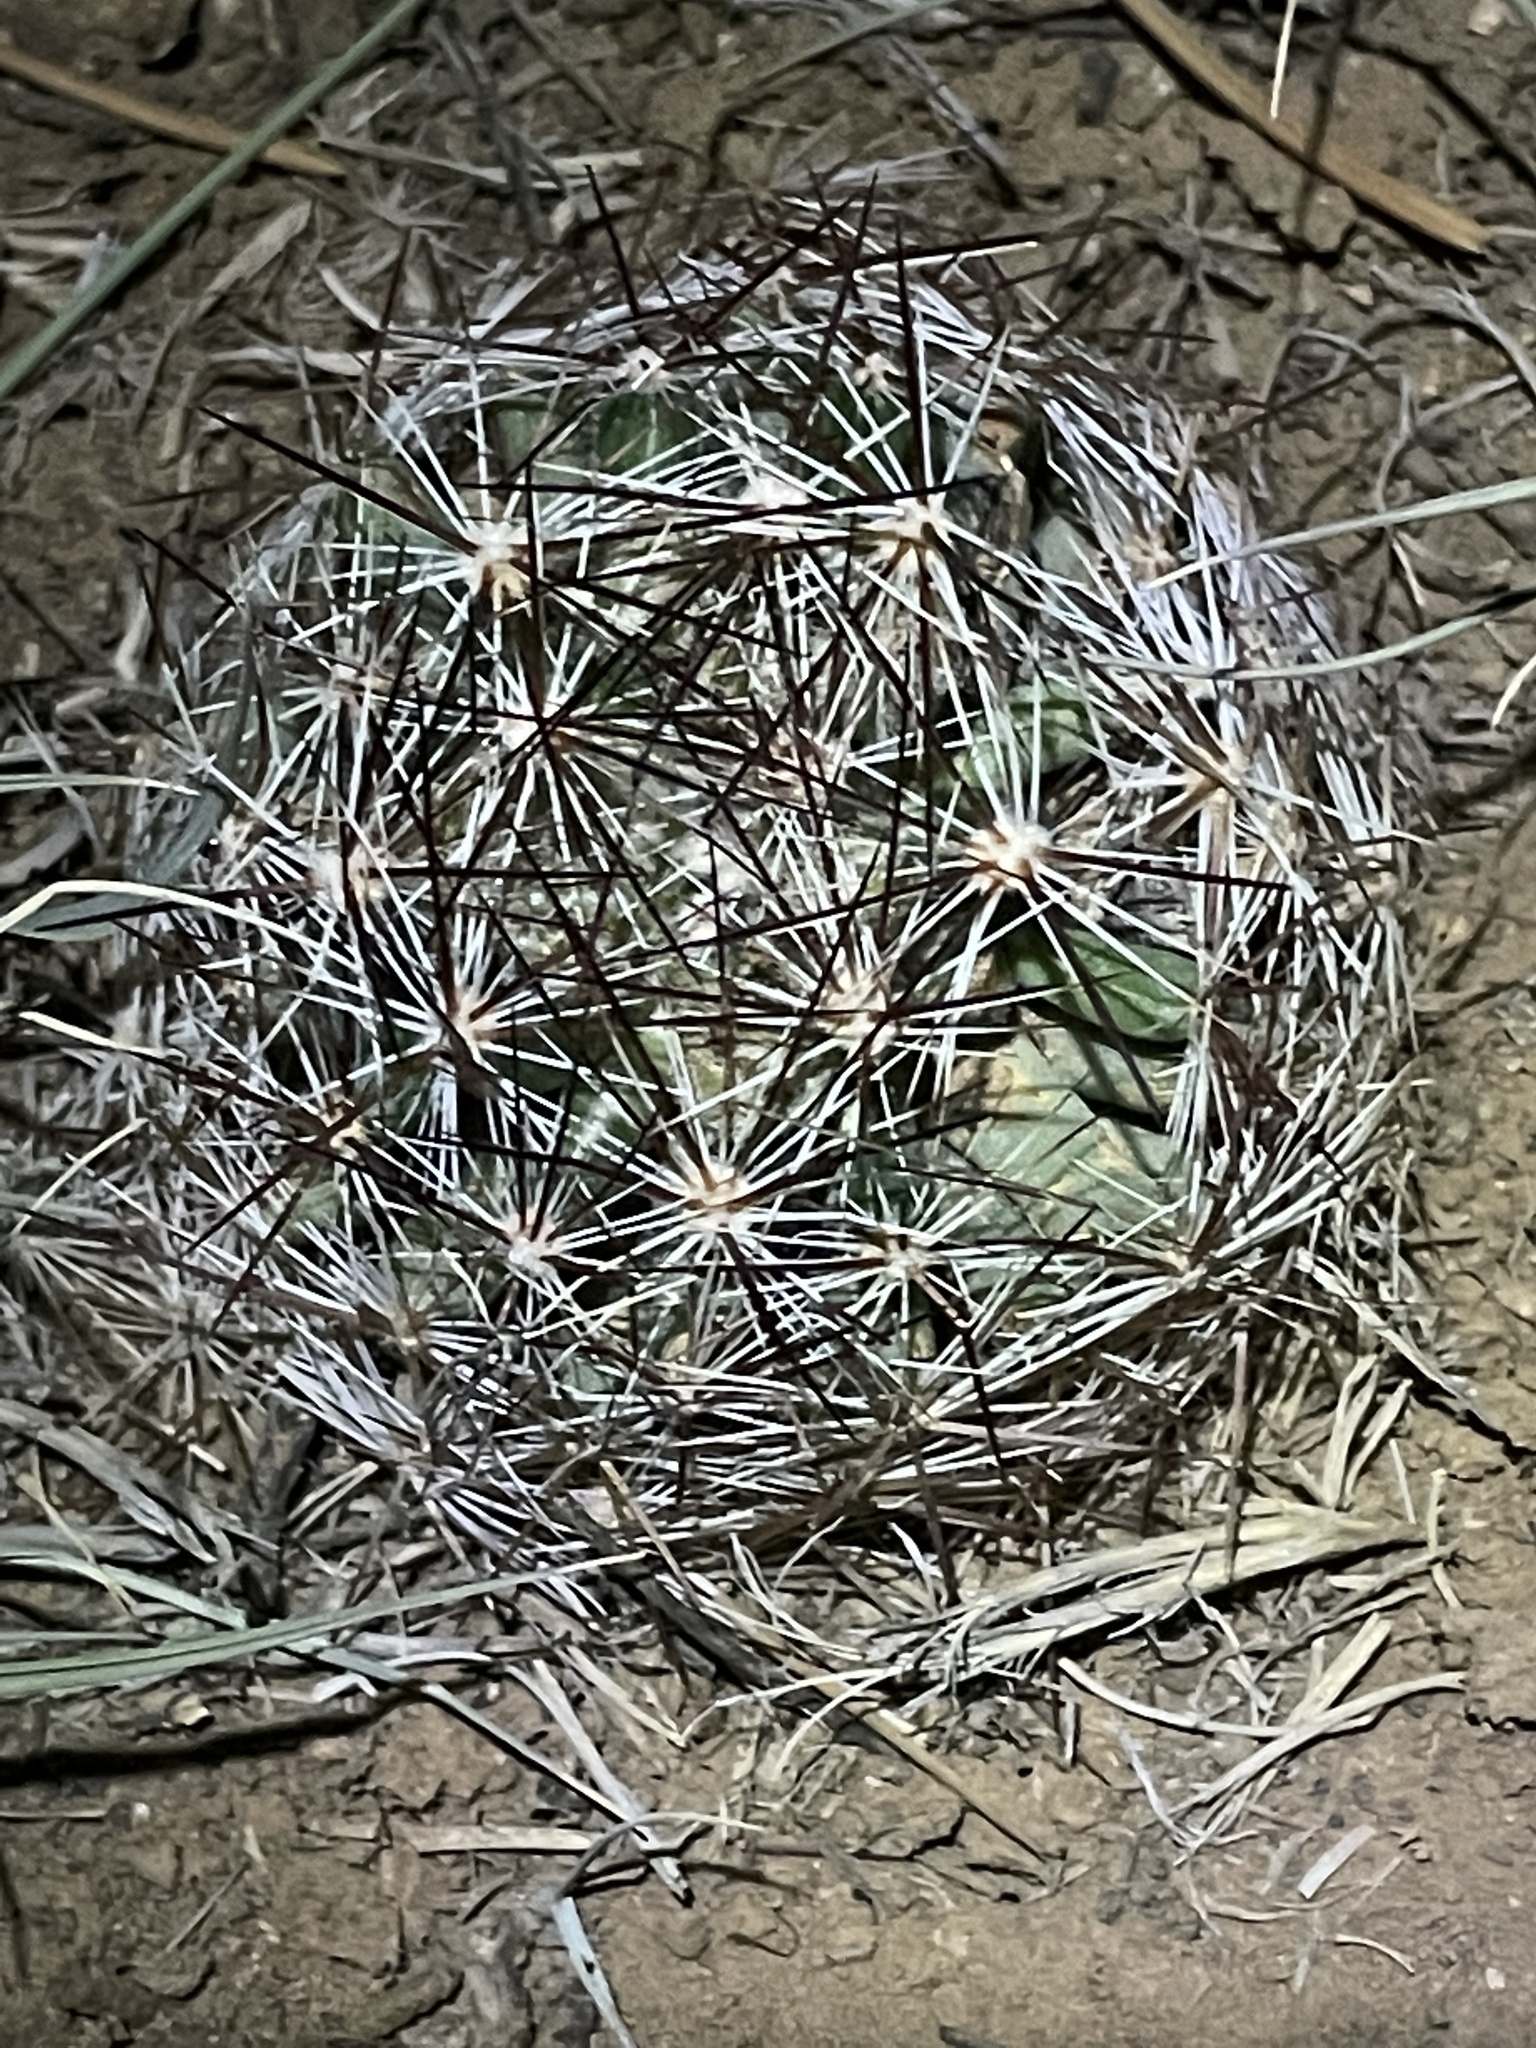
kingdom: Plantae
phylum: Tracheophyta
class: Magnoliopsida
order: Caryophyllales
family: Cactaceae
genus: Pelecyphora
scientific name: Pelecyphora vivipara
